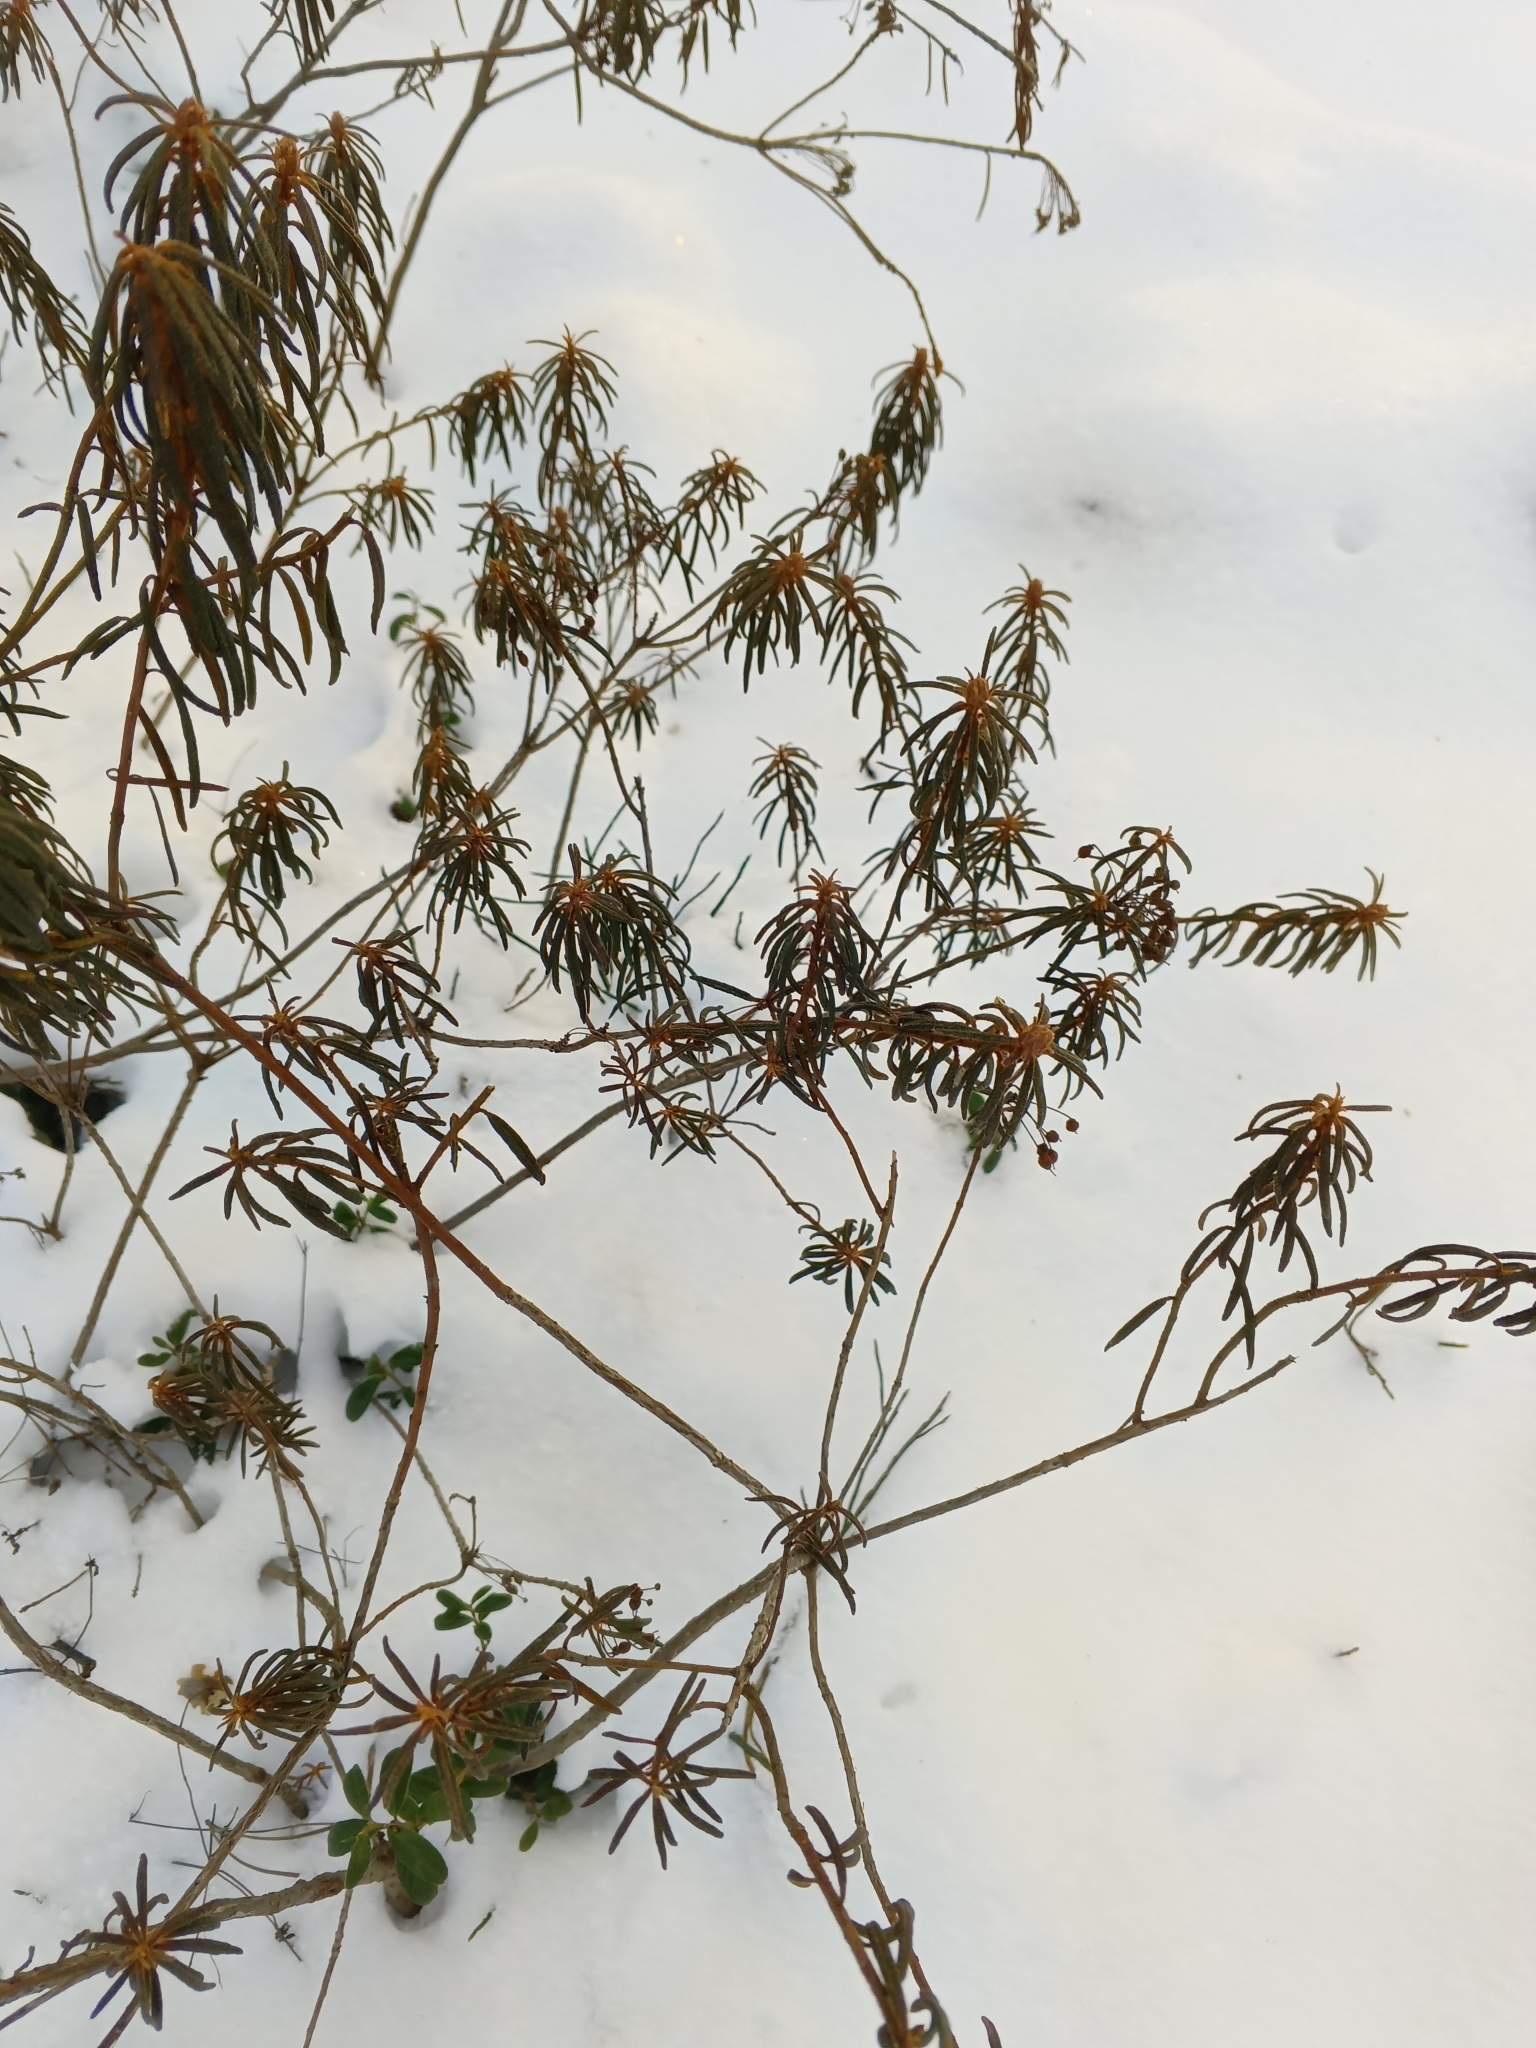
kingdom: Plantae
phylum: Tracheophyta
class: Magnoliopsida
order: Ericales
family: Ericaceae
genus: Rhododendron
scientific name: Rhododendron tomentosum
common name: Marsh labrador tea
